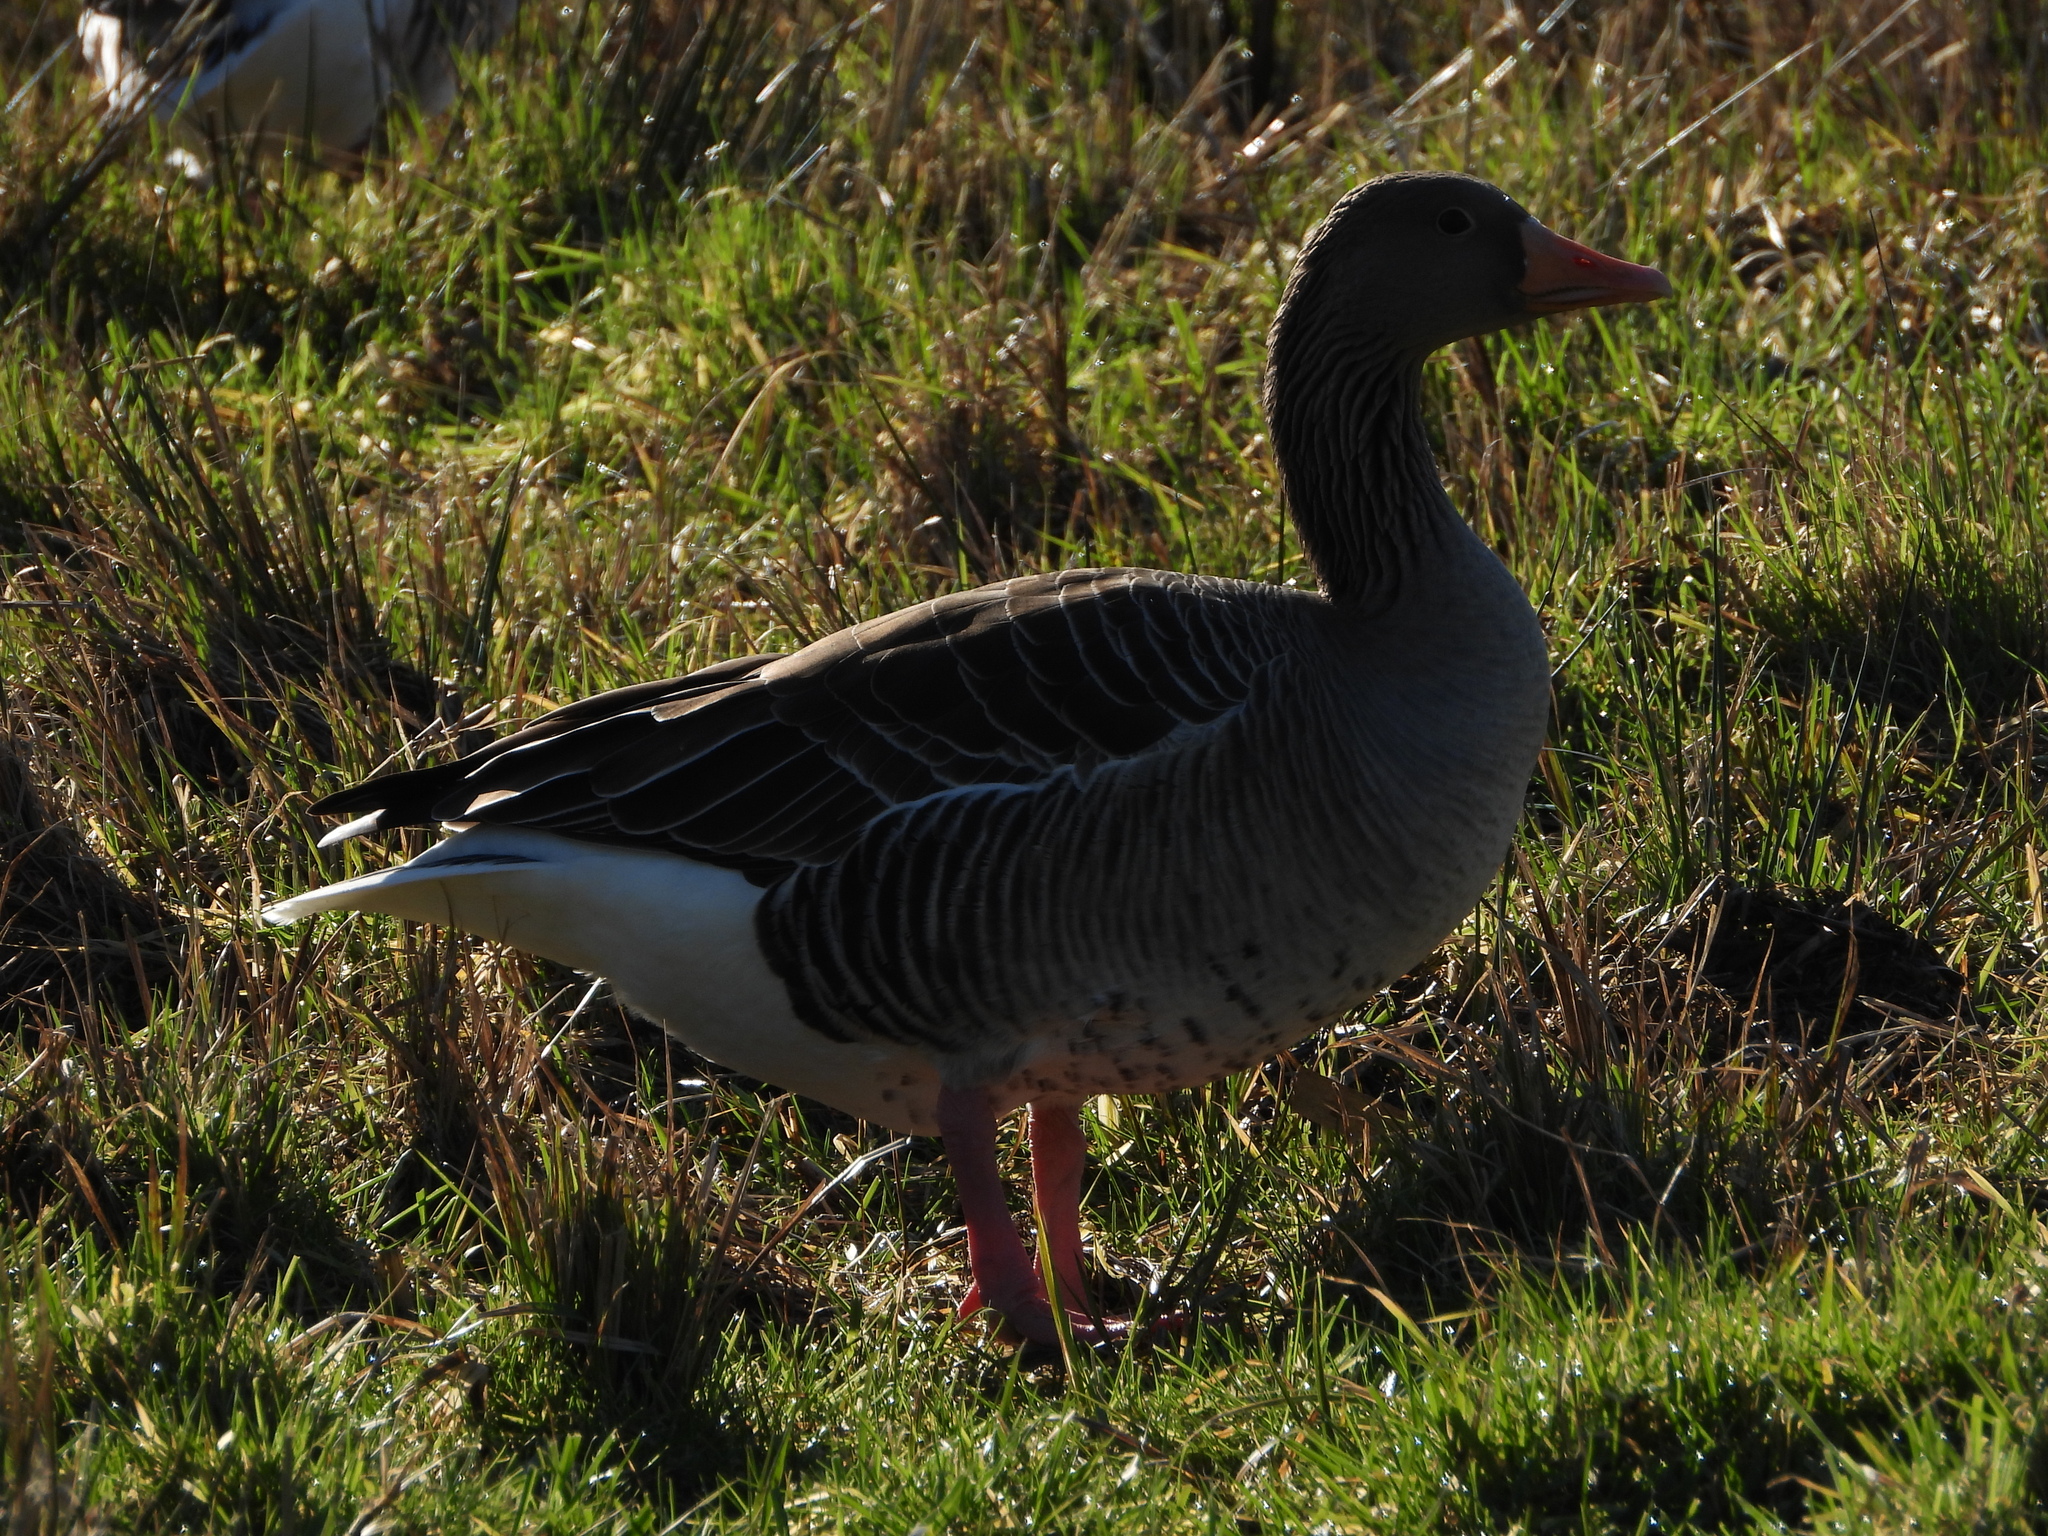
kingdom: Animalia
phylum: Chordata
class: Aves
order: Anseriformes
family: Anatidae
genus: Anser
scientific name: Anser anser
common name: Greylag goose
